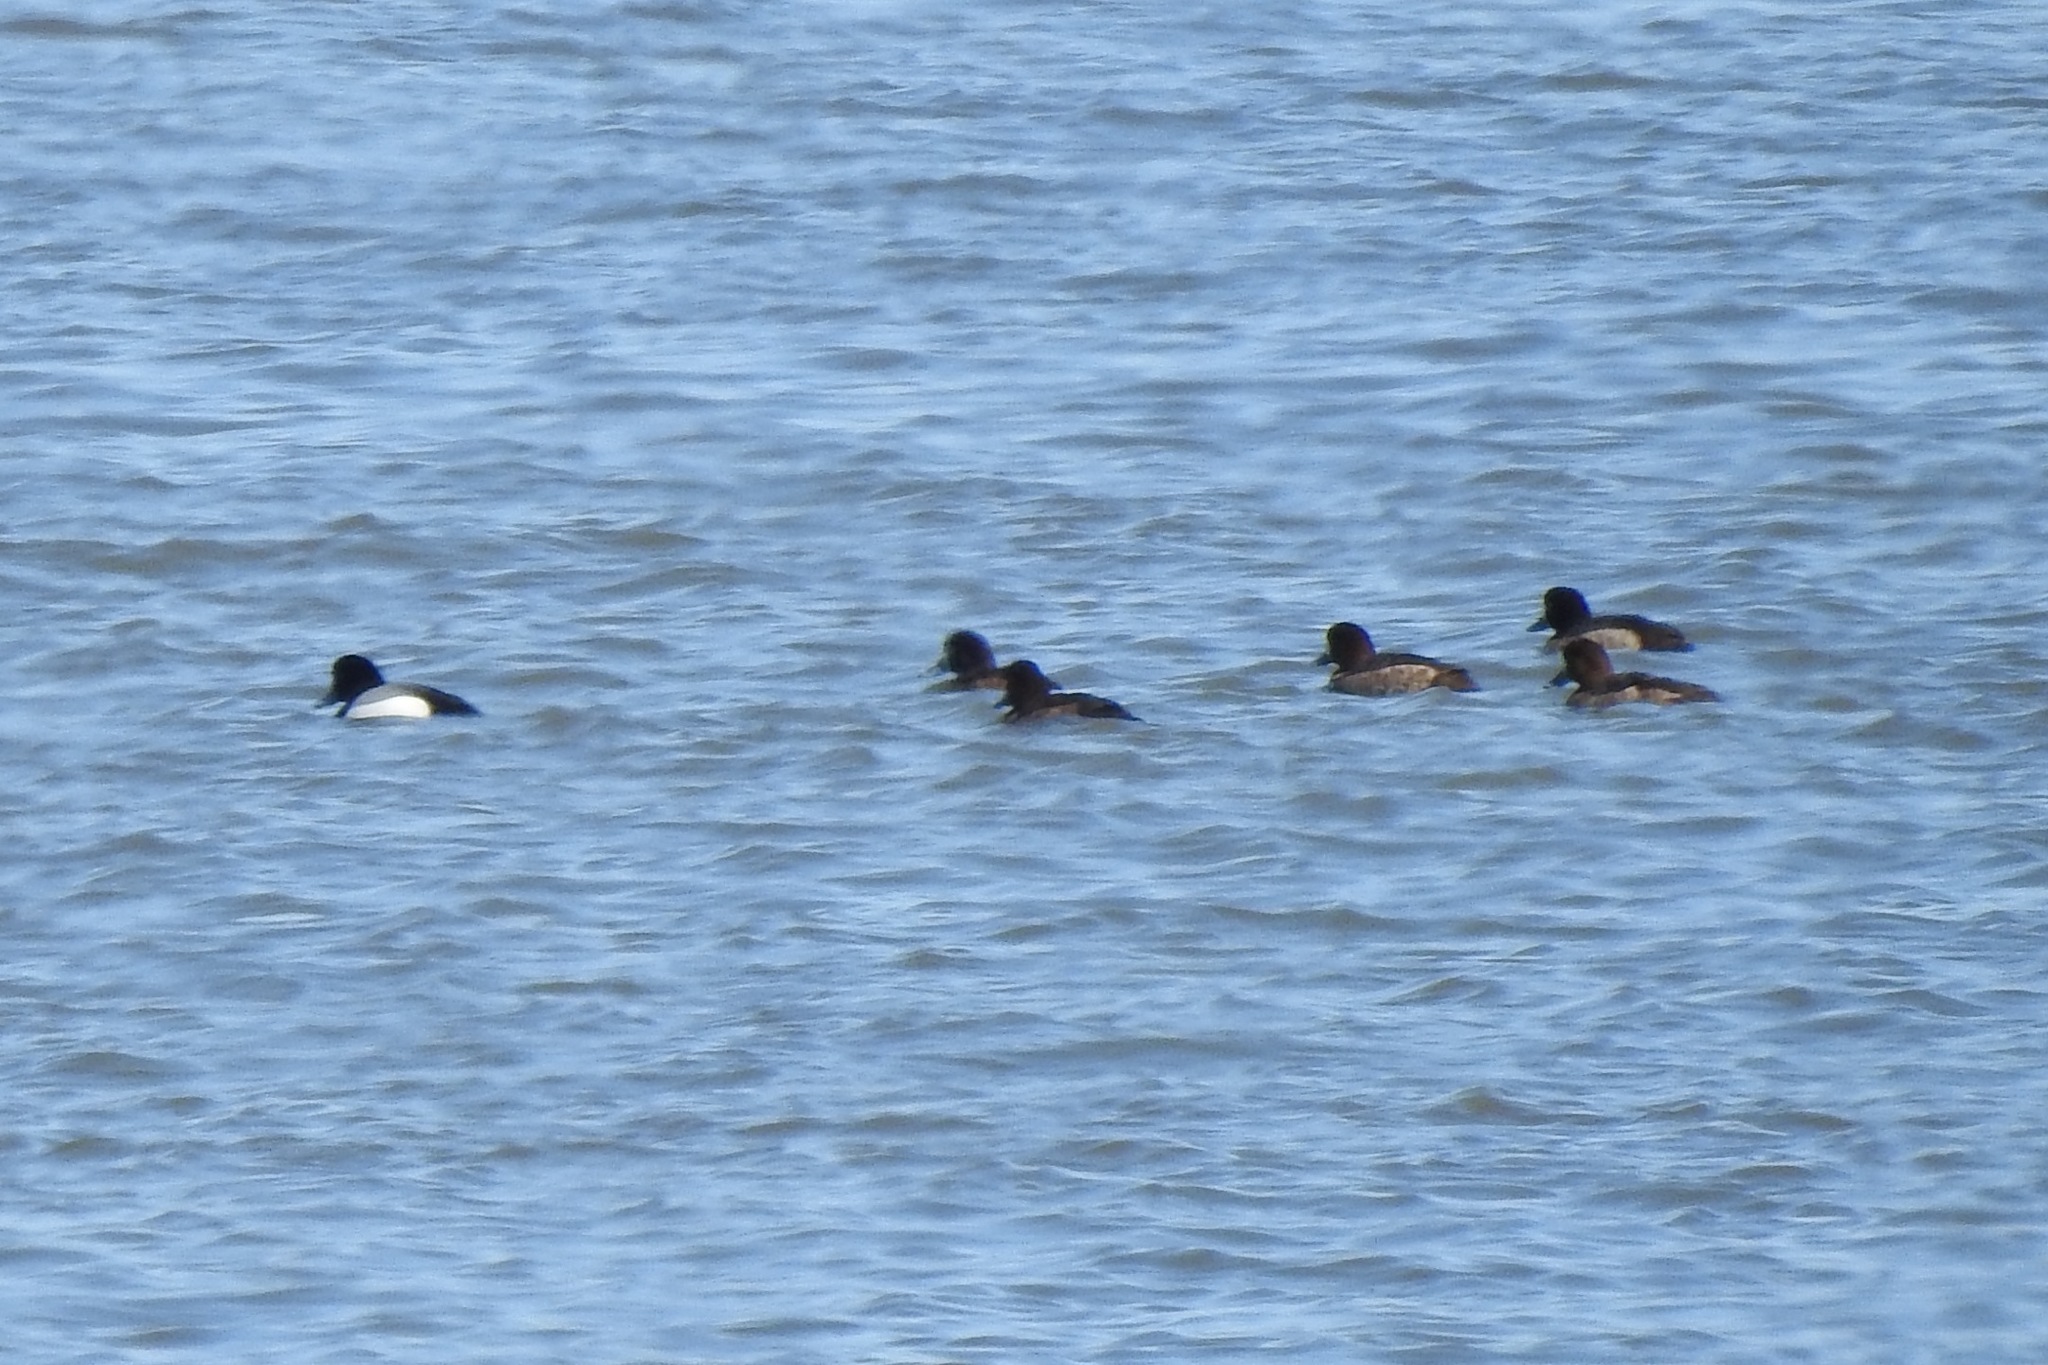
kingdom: Animalia
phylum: Chordata
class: Aves
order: Anseriformes
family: Anatidae
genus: Aythya
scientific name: Aythya marila
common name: Greater scaup
